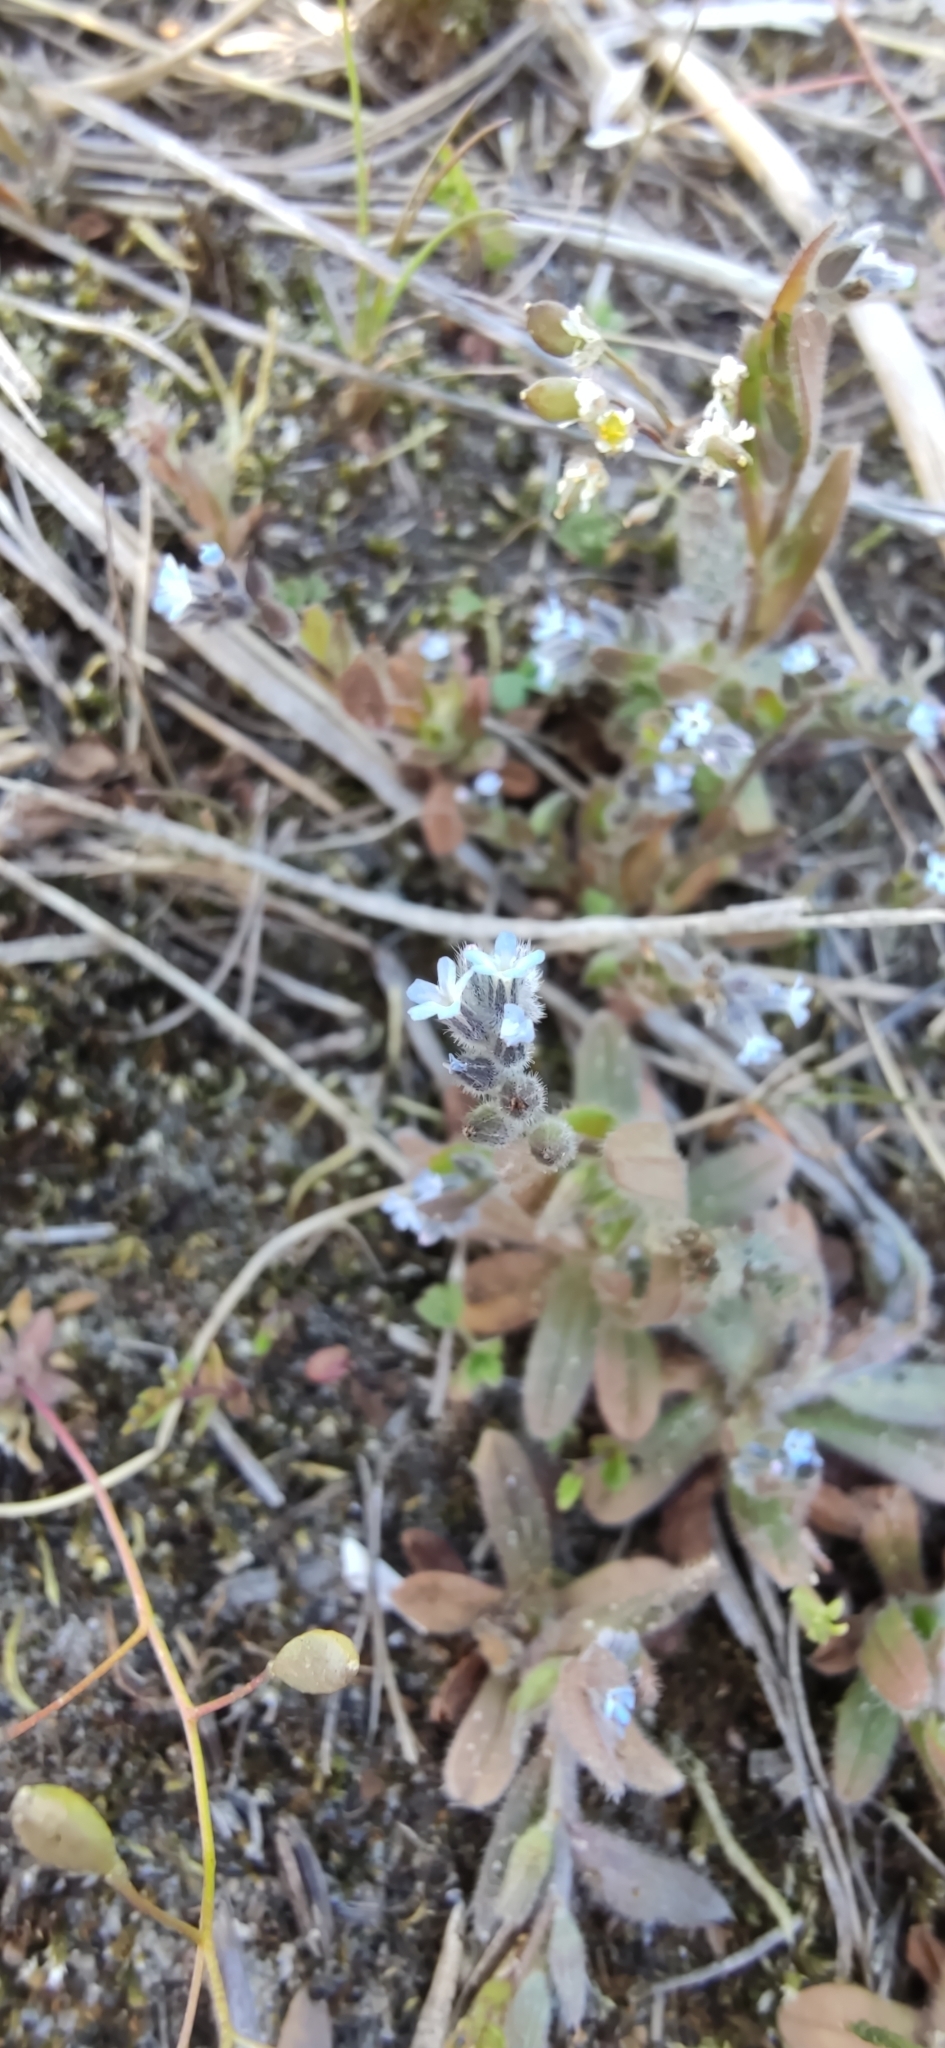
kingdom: Plantae
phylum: Tracheophyta
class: Magnoliopsida
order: Boraginales
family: Boraginaceae
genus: Myosotis
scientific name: Myosotis stricta
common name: Strict forget-me-not
